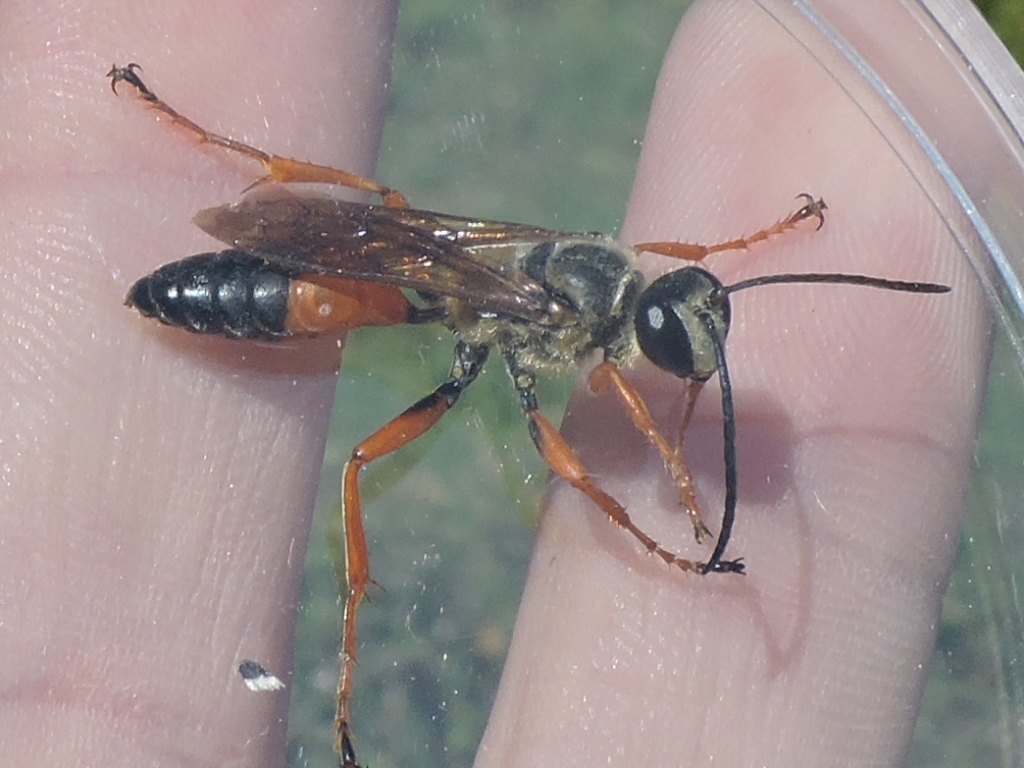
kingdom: Animalia
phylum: Arthropoda
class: Insecta
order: Hymenoptera
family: Sphecidae
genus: Sphex
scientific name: Sphex ichneumoneus
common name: Great golden digger wasp
